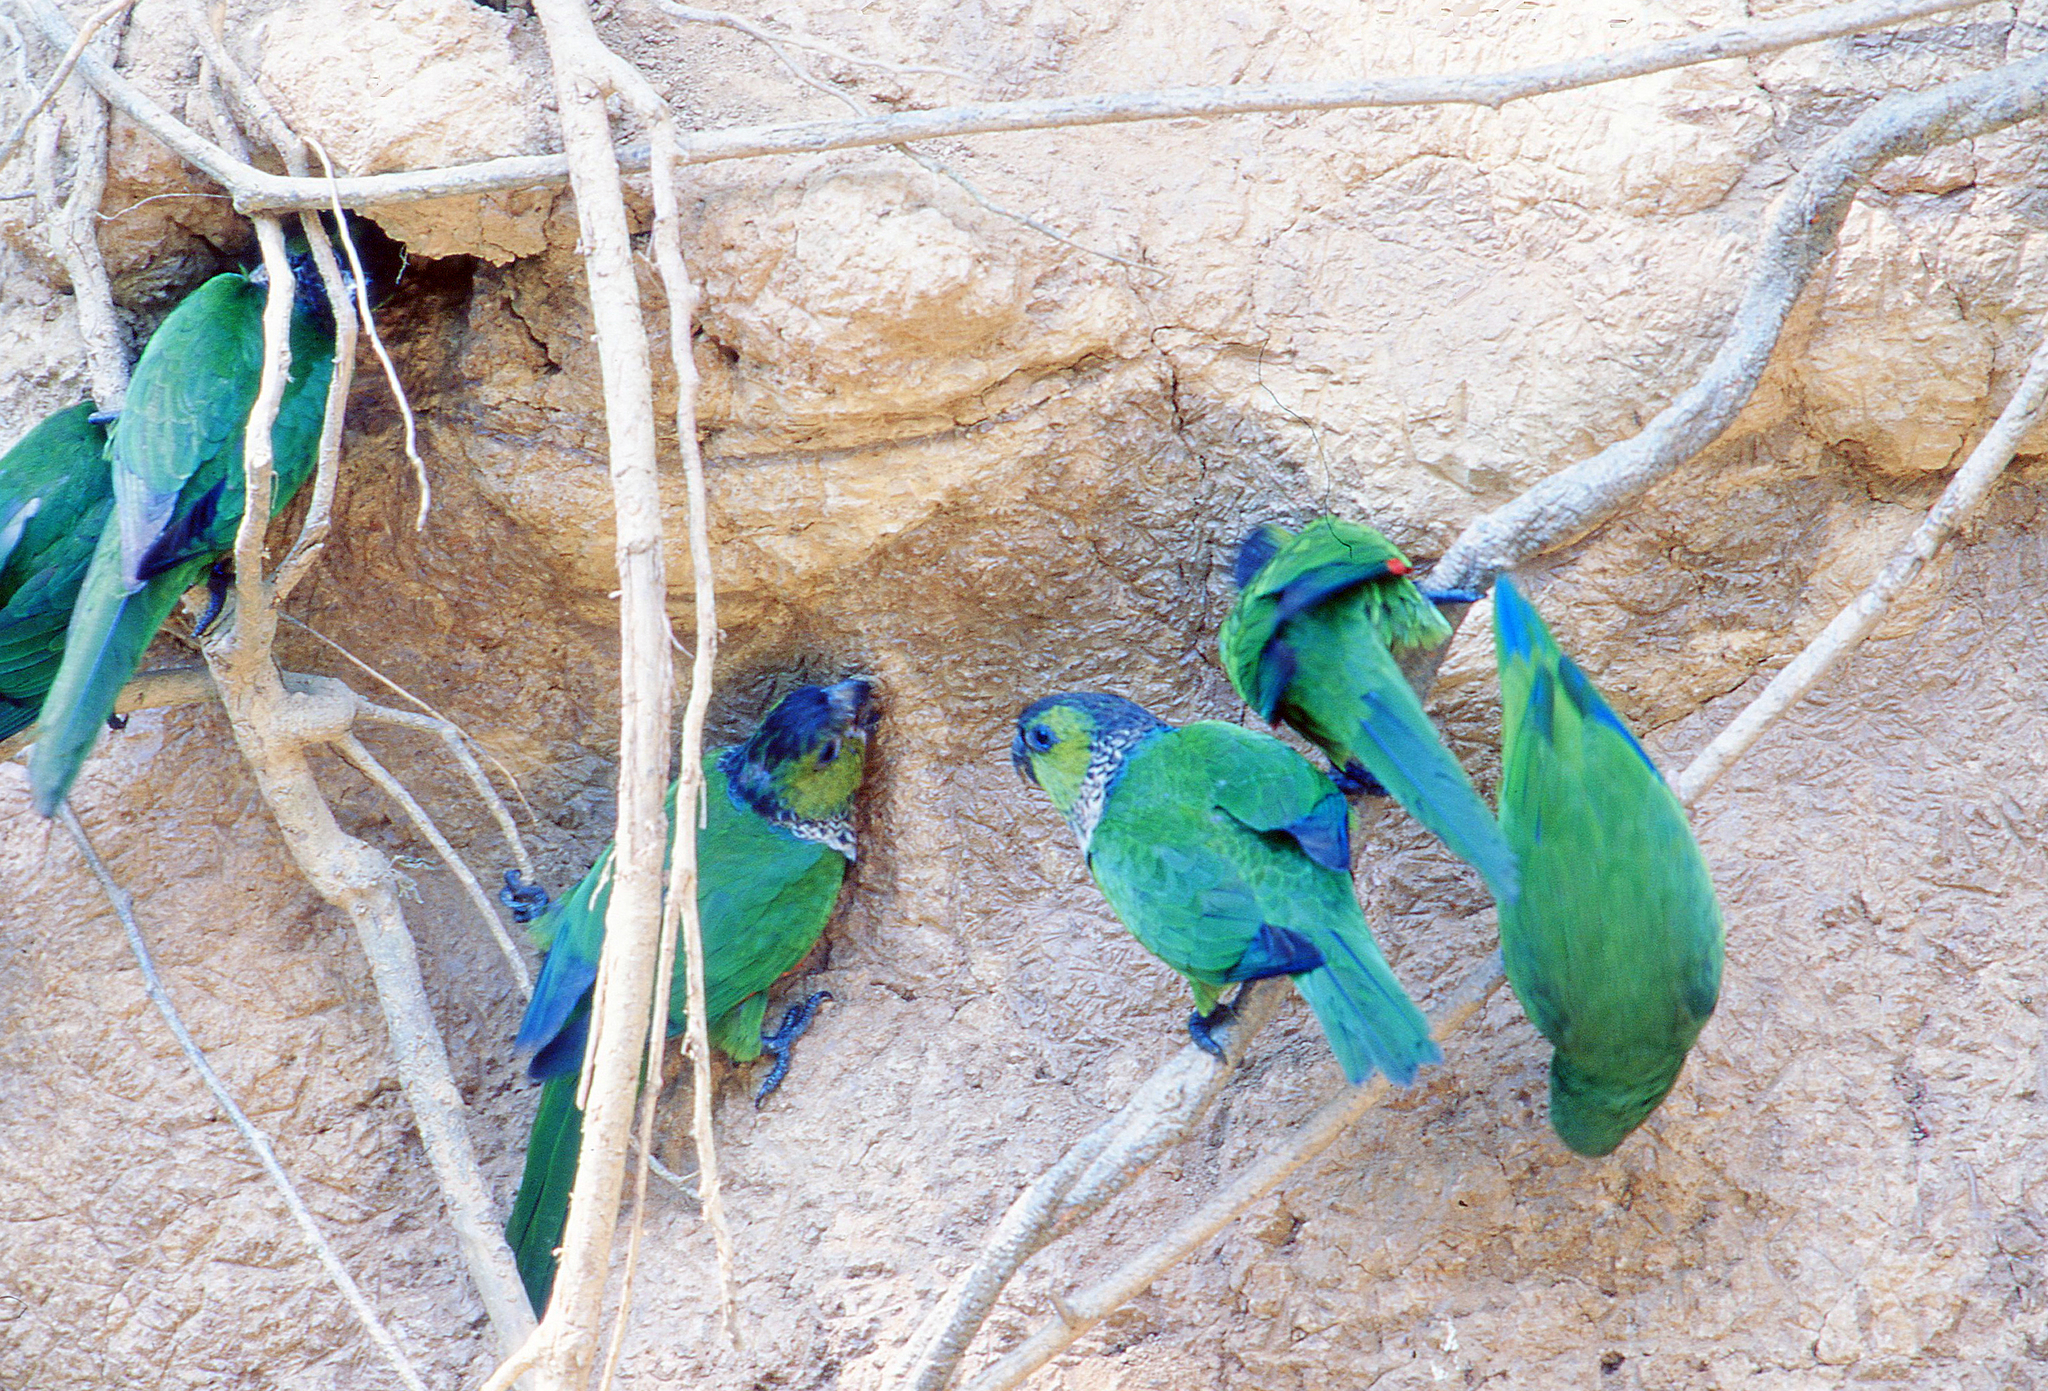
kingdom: Animalia
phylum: Chordata
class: Aves
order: Psittaciformes
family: Psittacidae
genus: Pyrrhura
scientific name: Pyrrhura rupicola
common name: Black-capped parakeet
